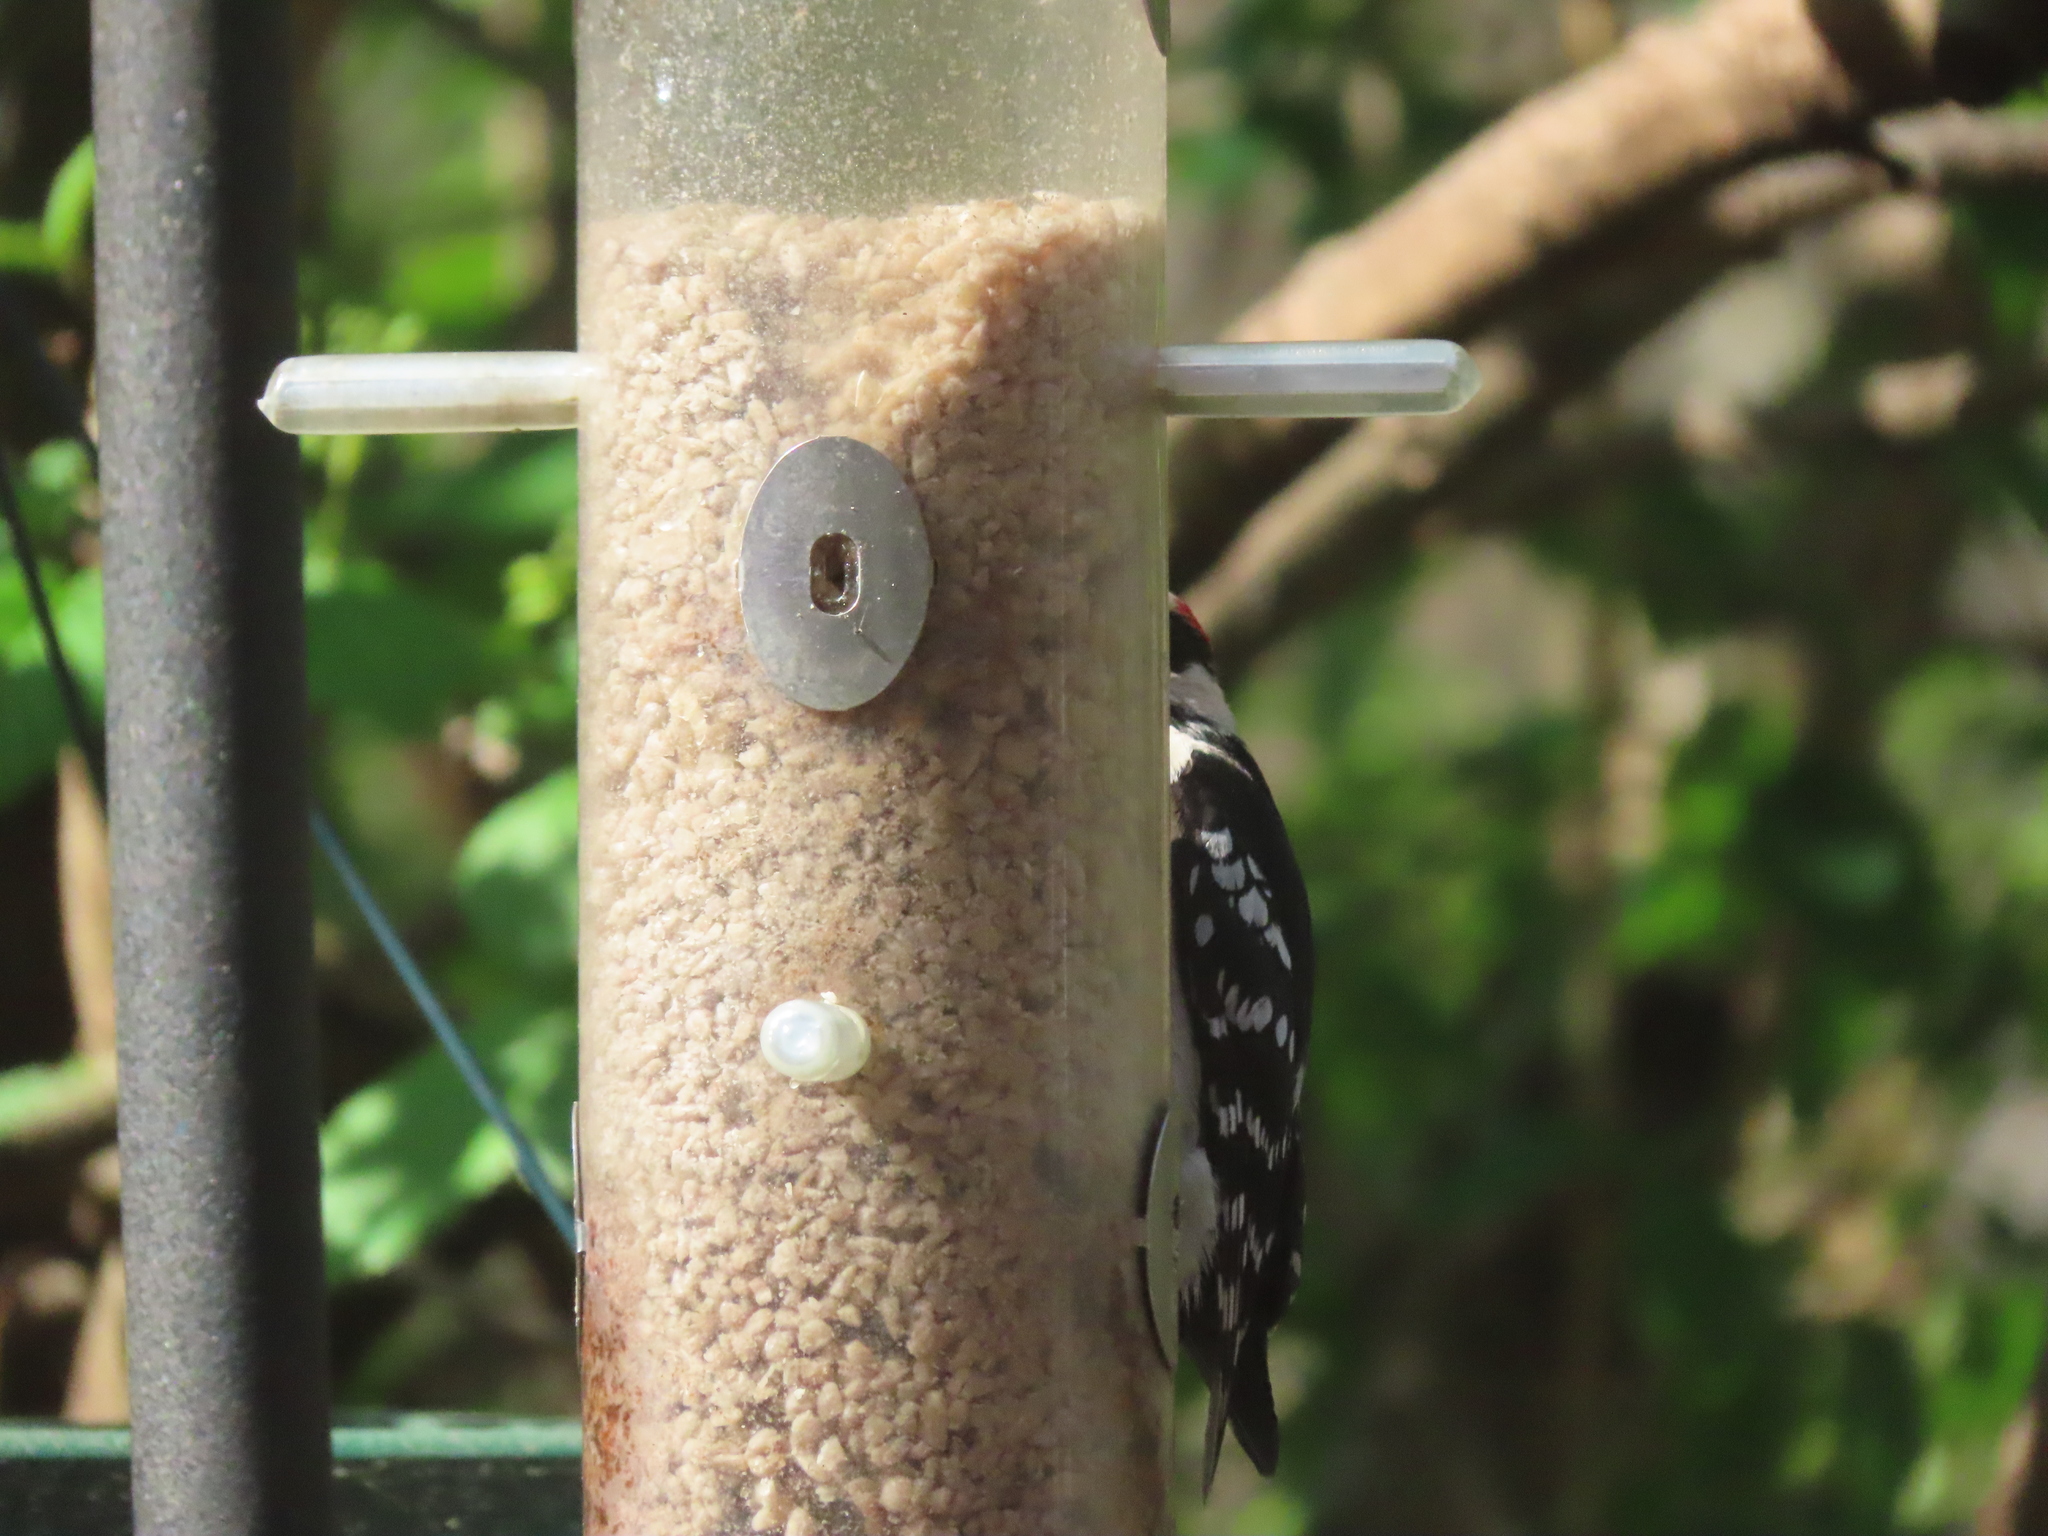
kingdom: Animalia
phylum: Chordata
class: Aves
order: Piciformes
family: Picidae
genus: Dryobates
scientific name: Dryobates pubescens
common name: Downy woodpecker
